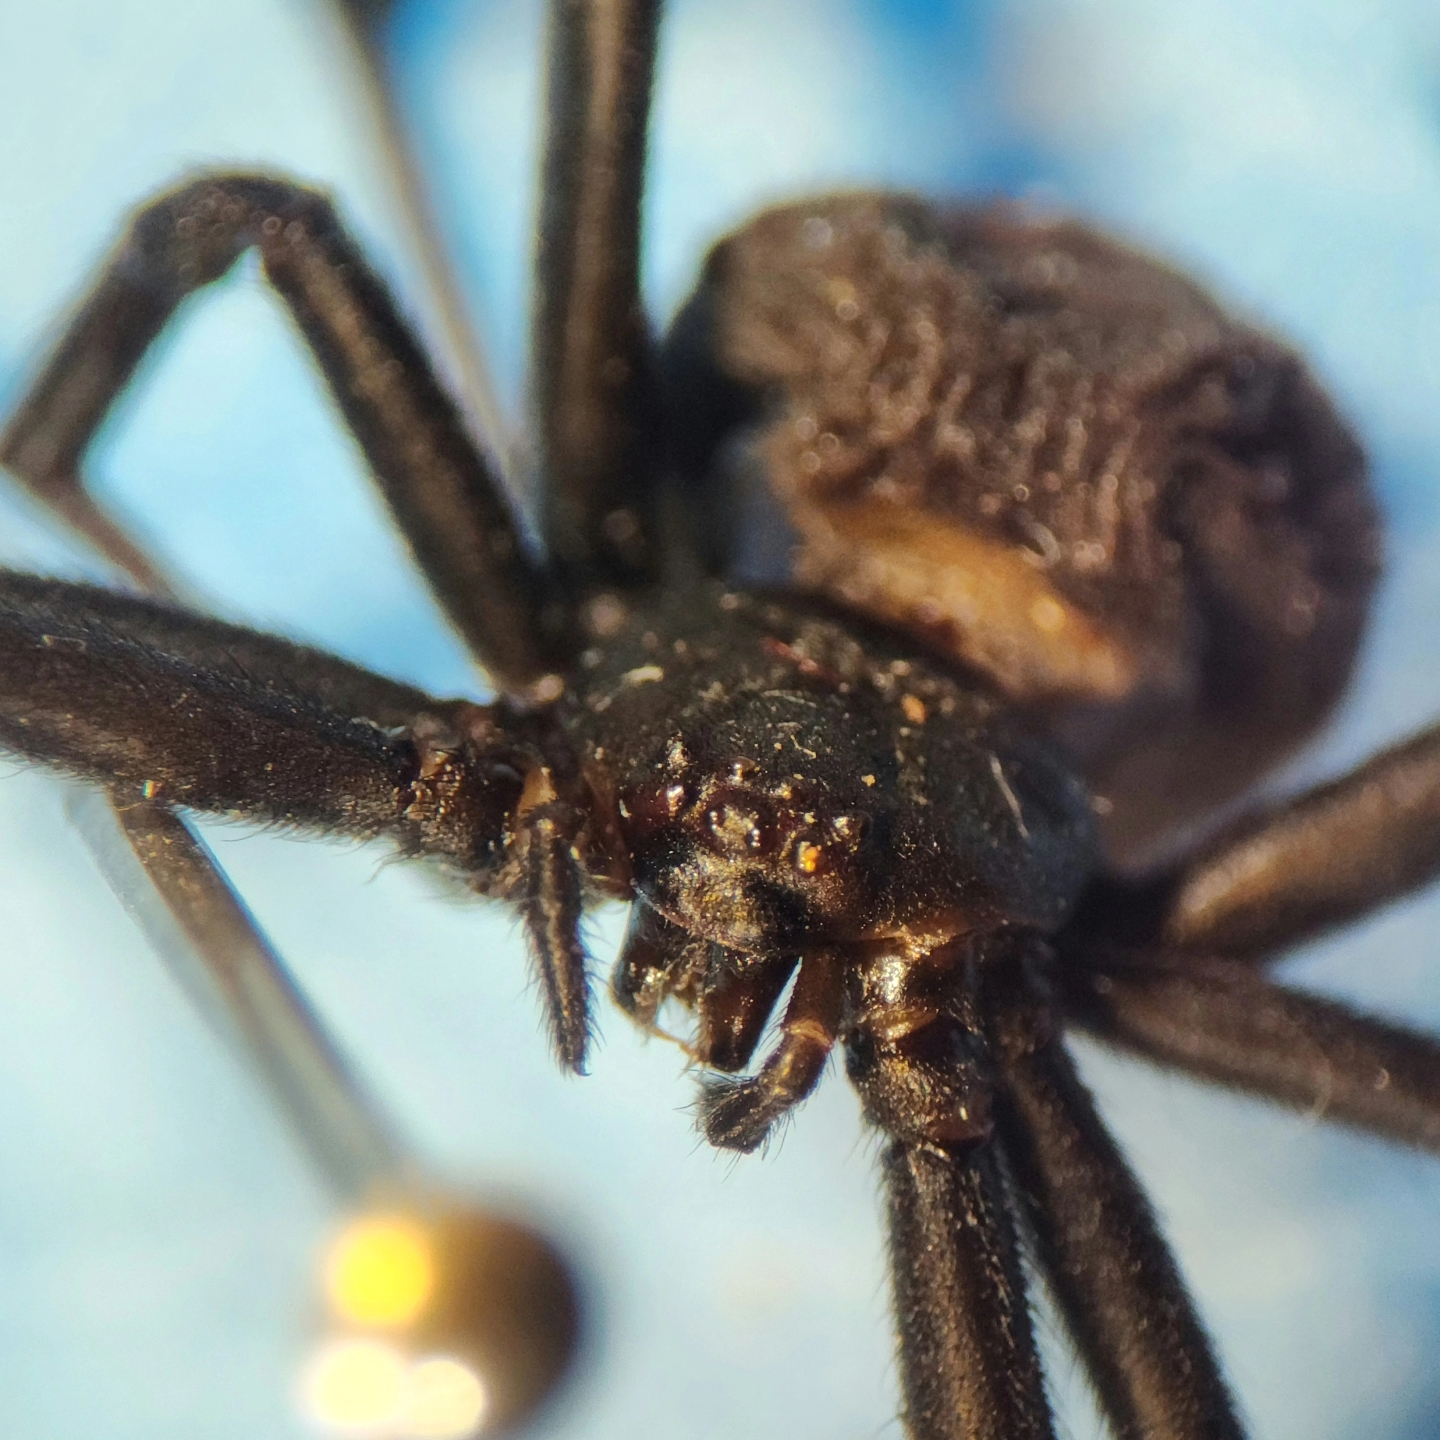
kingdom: Animalia
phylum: Arthropoda
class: Arachnida
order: Araneae
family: Theridiidae
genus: Latrodectus
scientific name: Latrodectus hasselti
